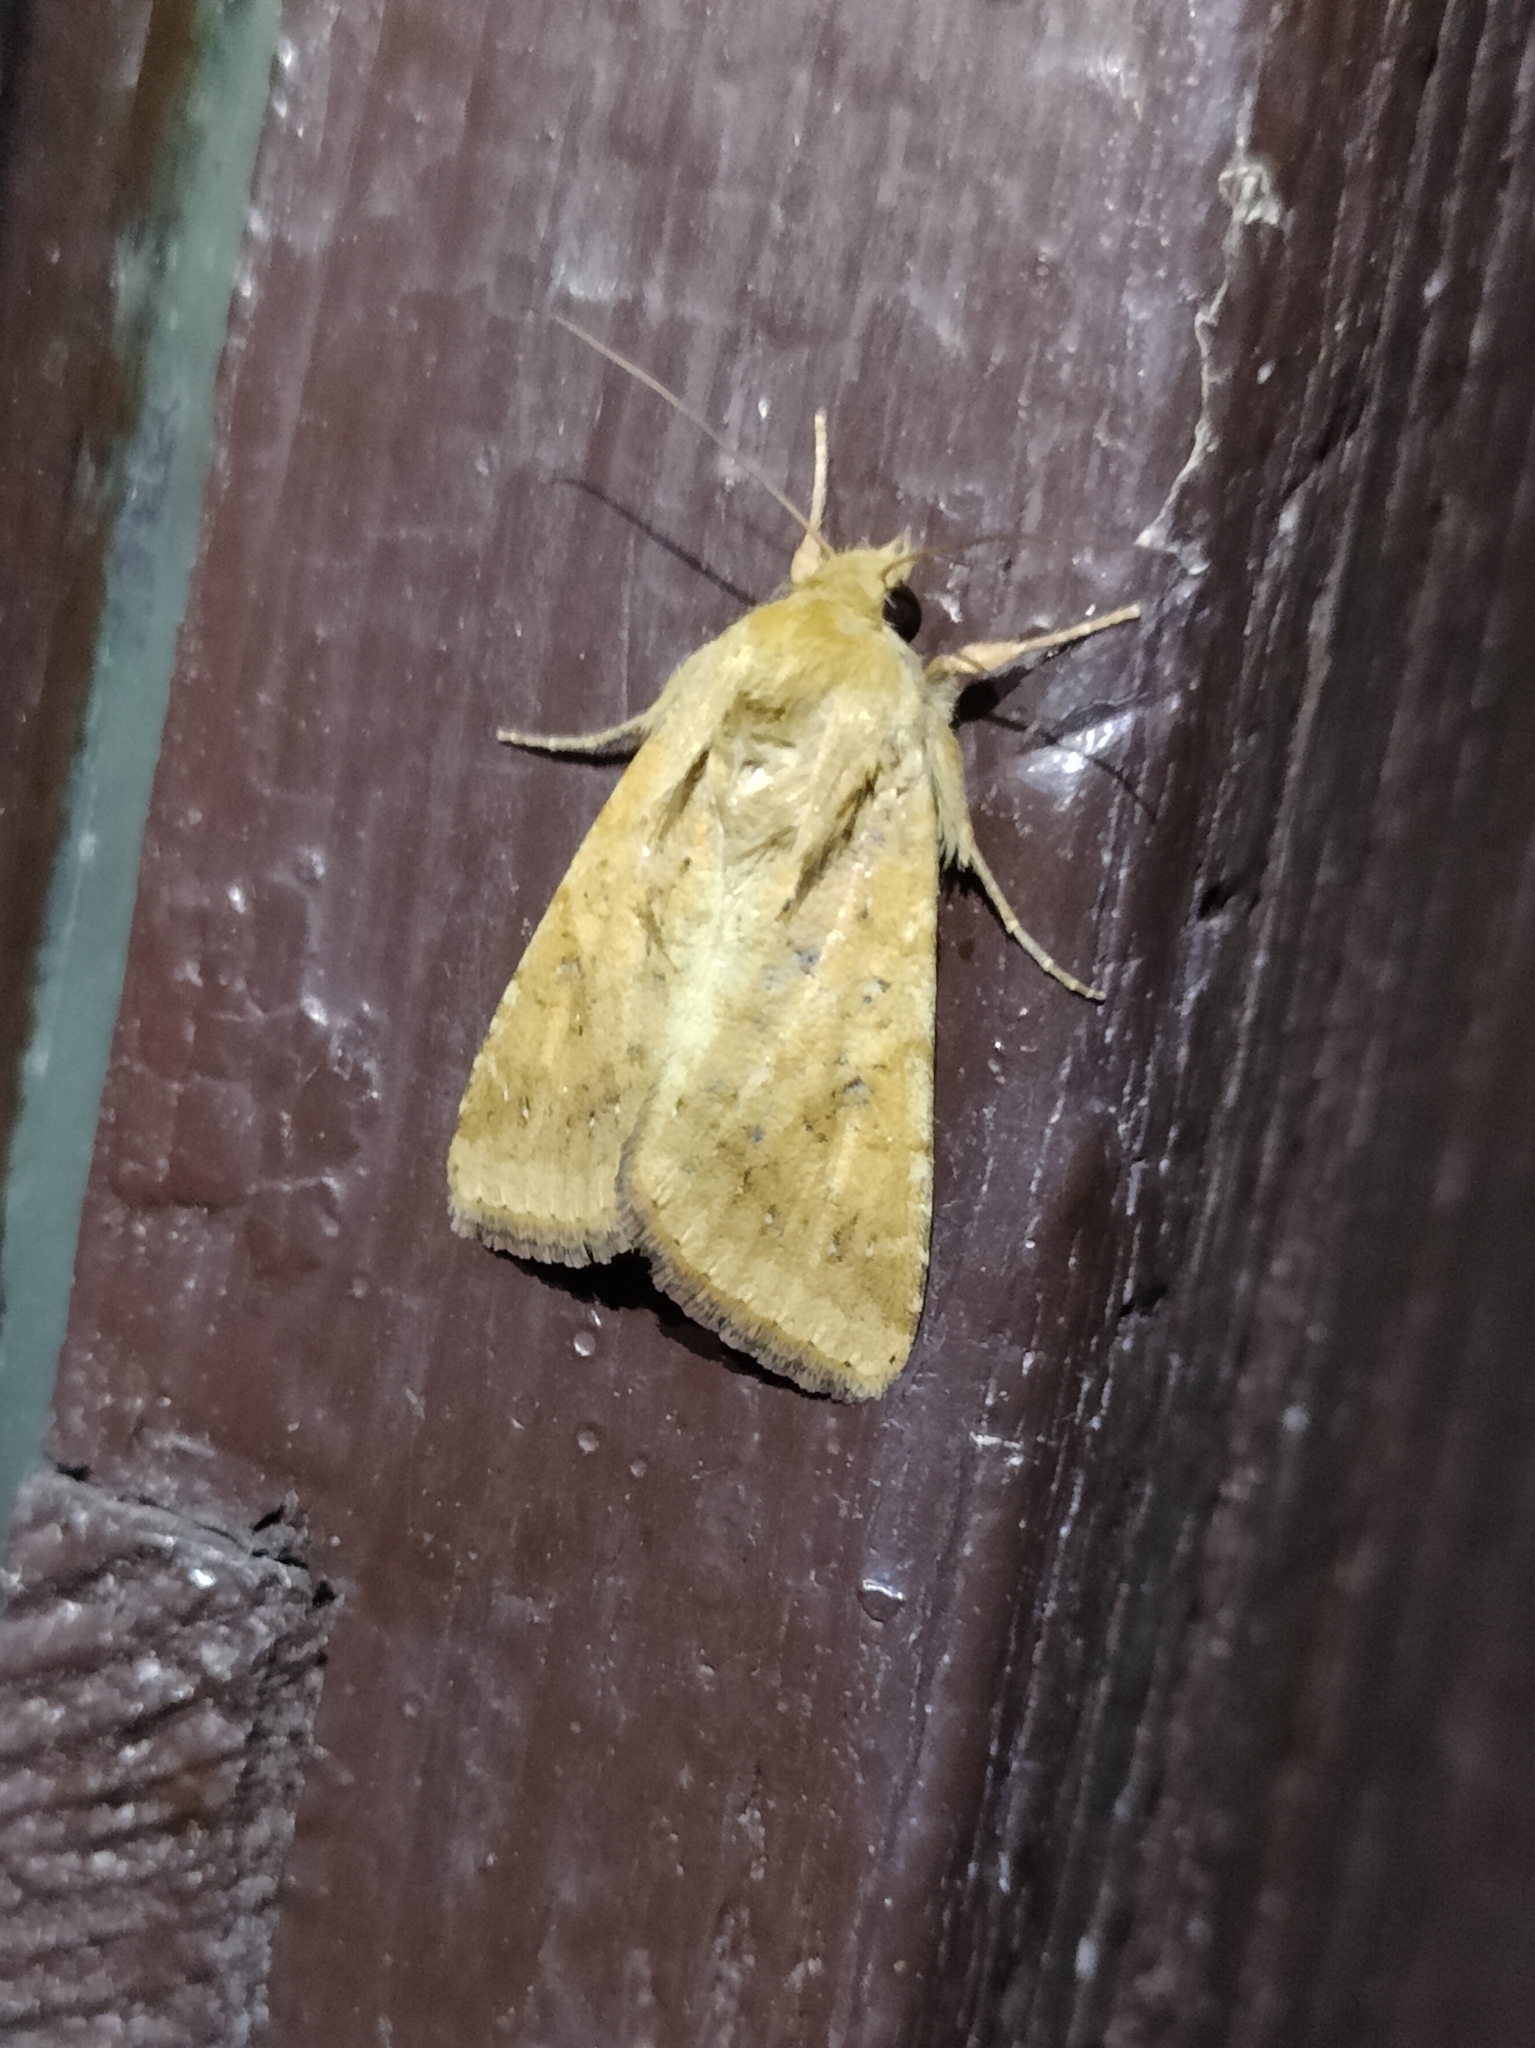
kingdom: Animalia
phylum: Arthropoda
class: Insecta
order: Lepidoptera
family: Noctuidae
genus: Helicoverpa
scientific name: Helicoverpa armigera
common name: Cotton bollworm
